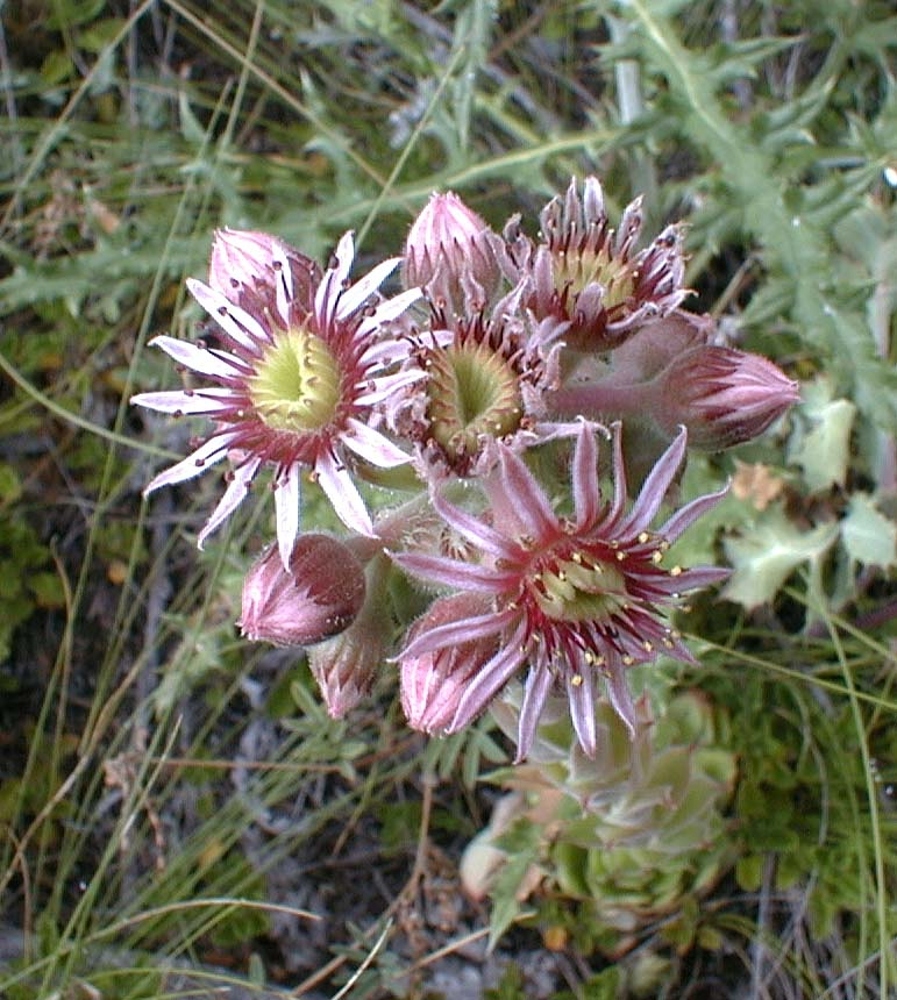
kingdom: Plantae
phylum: Tracheophyta
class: Magnoliopsida
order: Saxifragales
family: Crassulaceae
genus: Sempervivum
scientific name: Sempervivum tectorum
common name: House-leek
